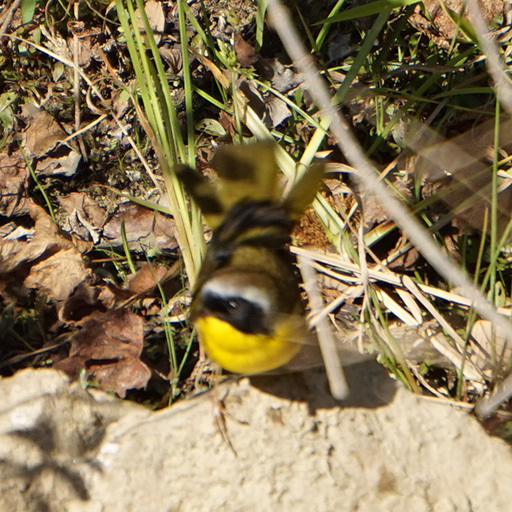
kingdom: Animalia
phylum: Chordata
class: Aves
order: Passeriformes
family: Parulidae
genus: Geothlypis
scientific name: Geothlypis trichas
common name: Common yellowthroat
